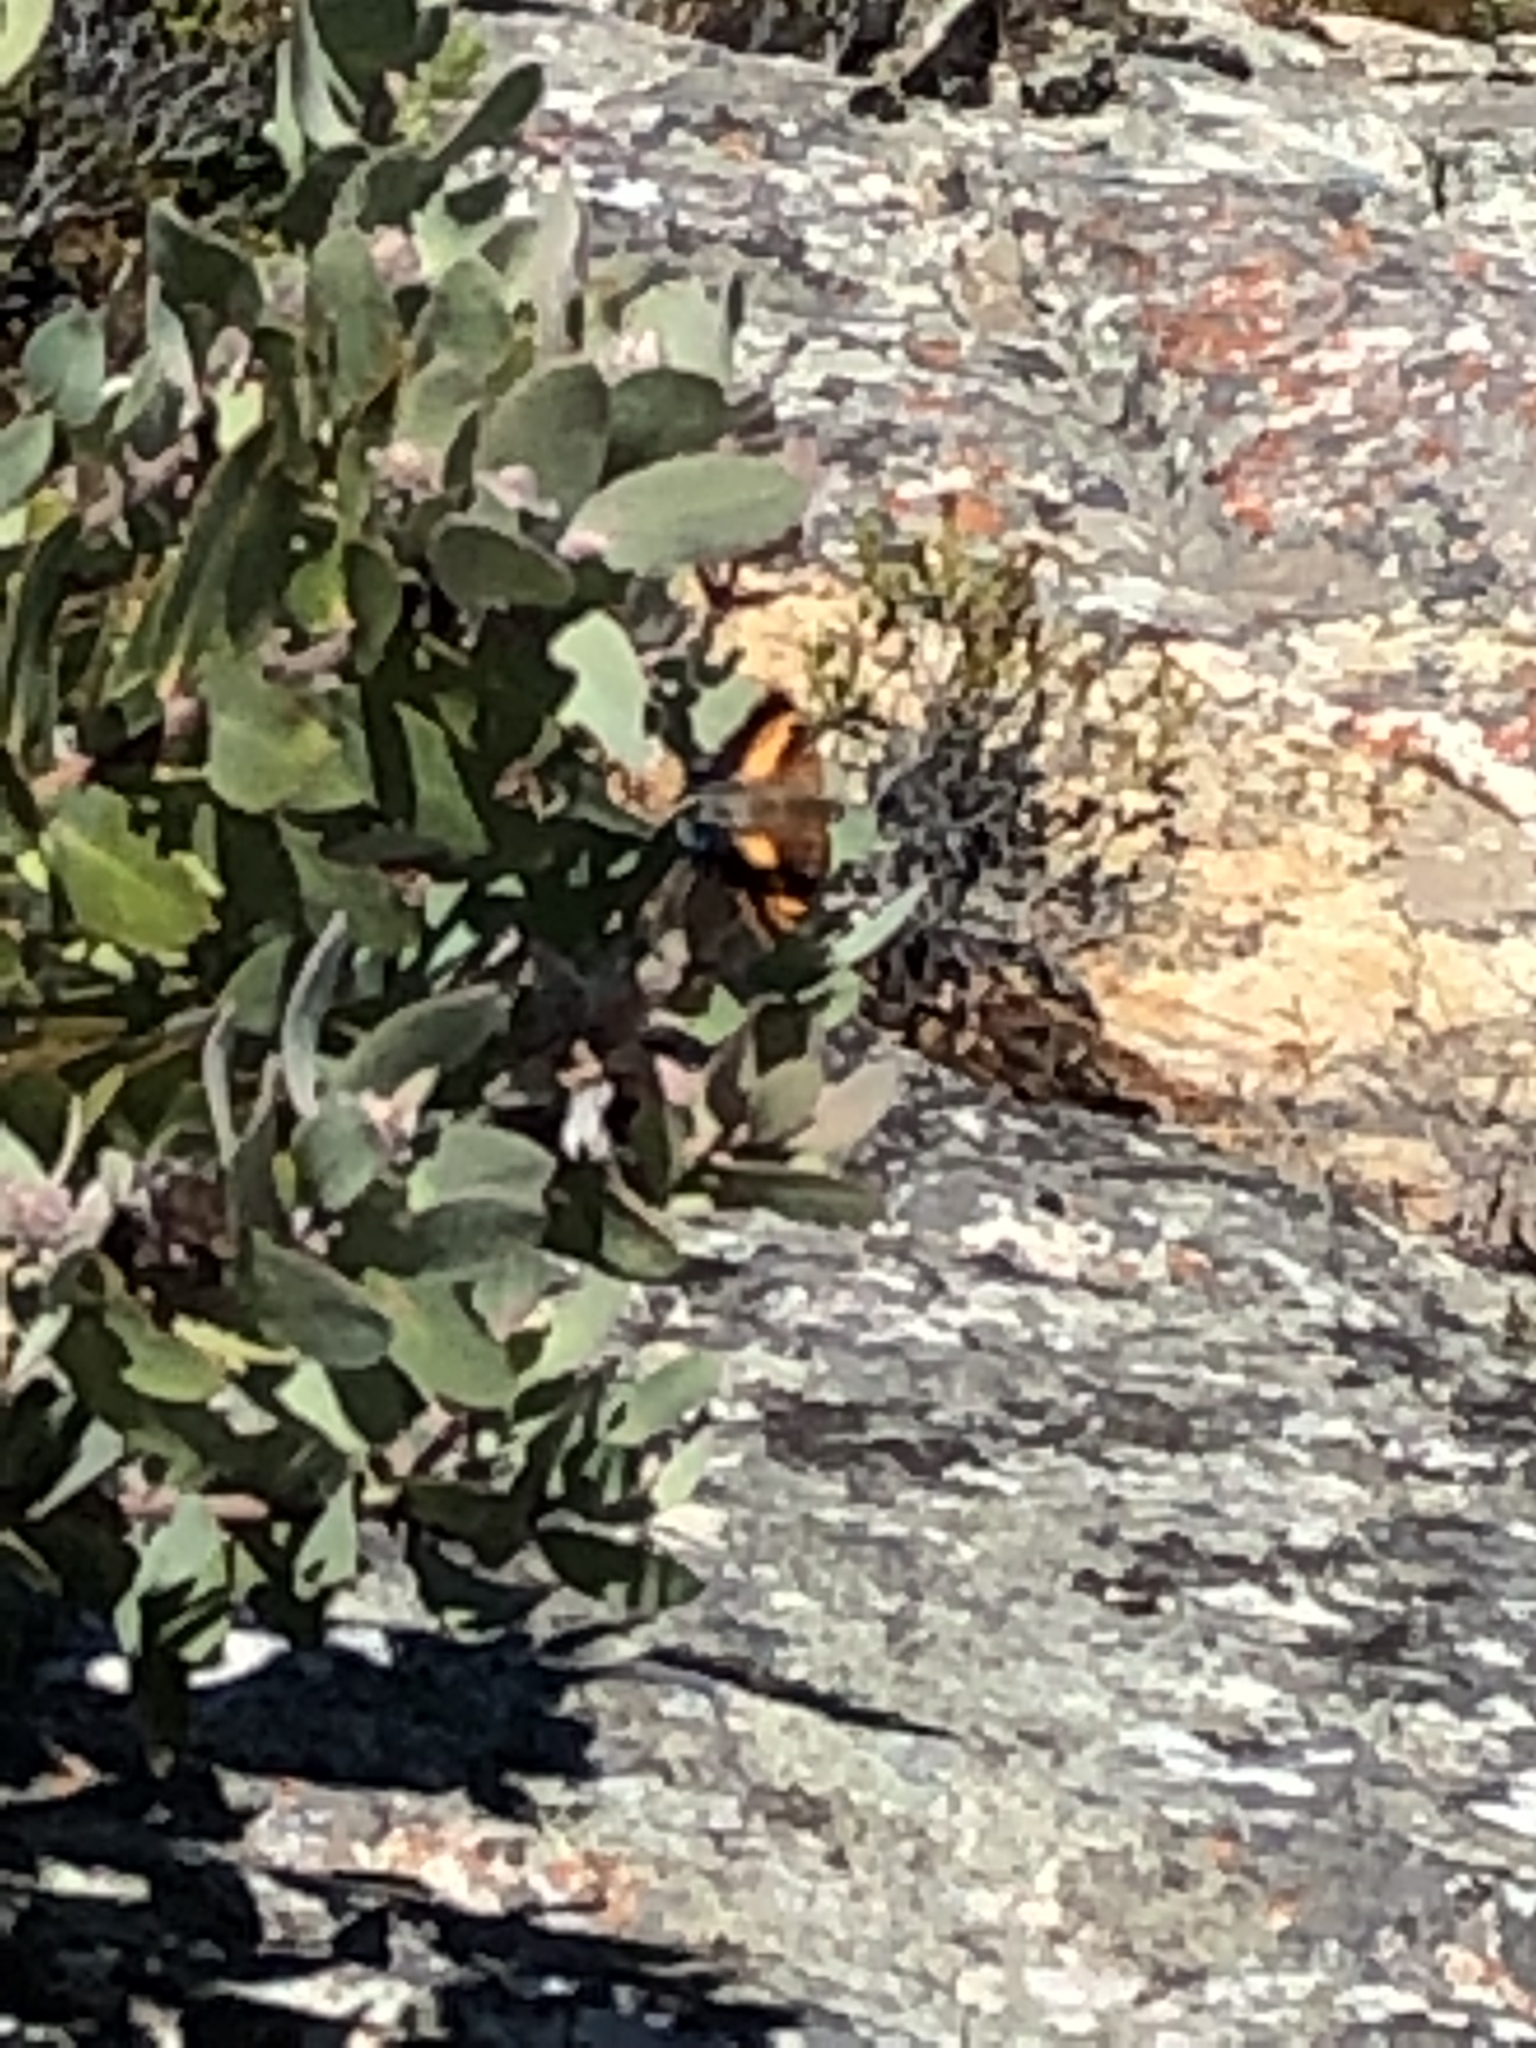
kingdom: Animalia
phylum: Arthropoda
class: Insecta
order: Lepidoptera
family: Nymphalidae
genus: Charaxes
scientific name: Charaxes pelias
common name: Protea charaxes
